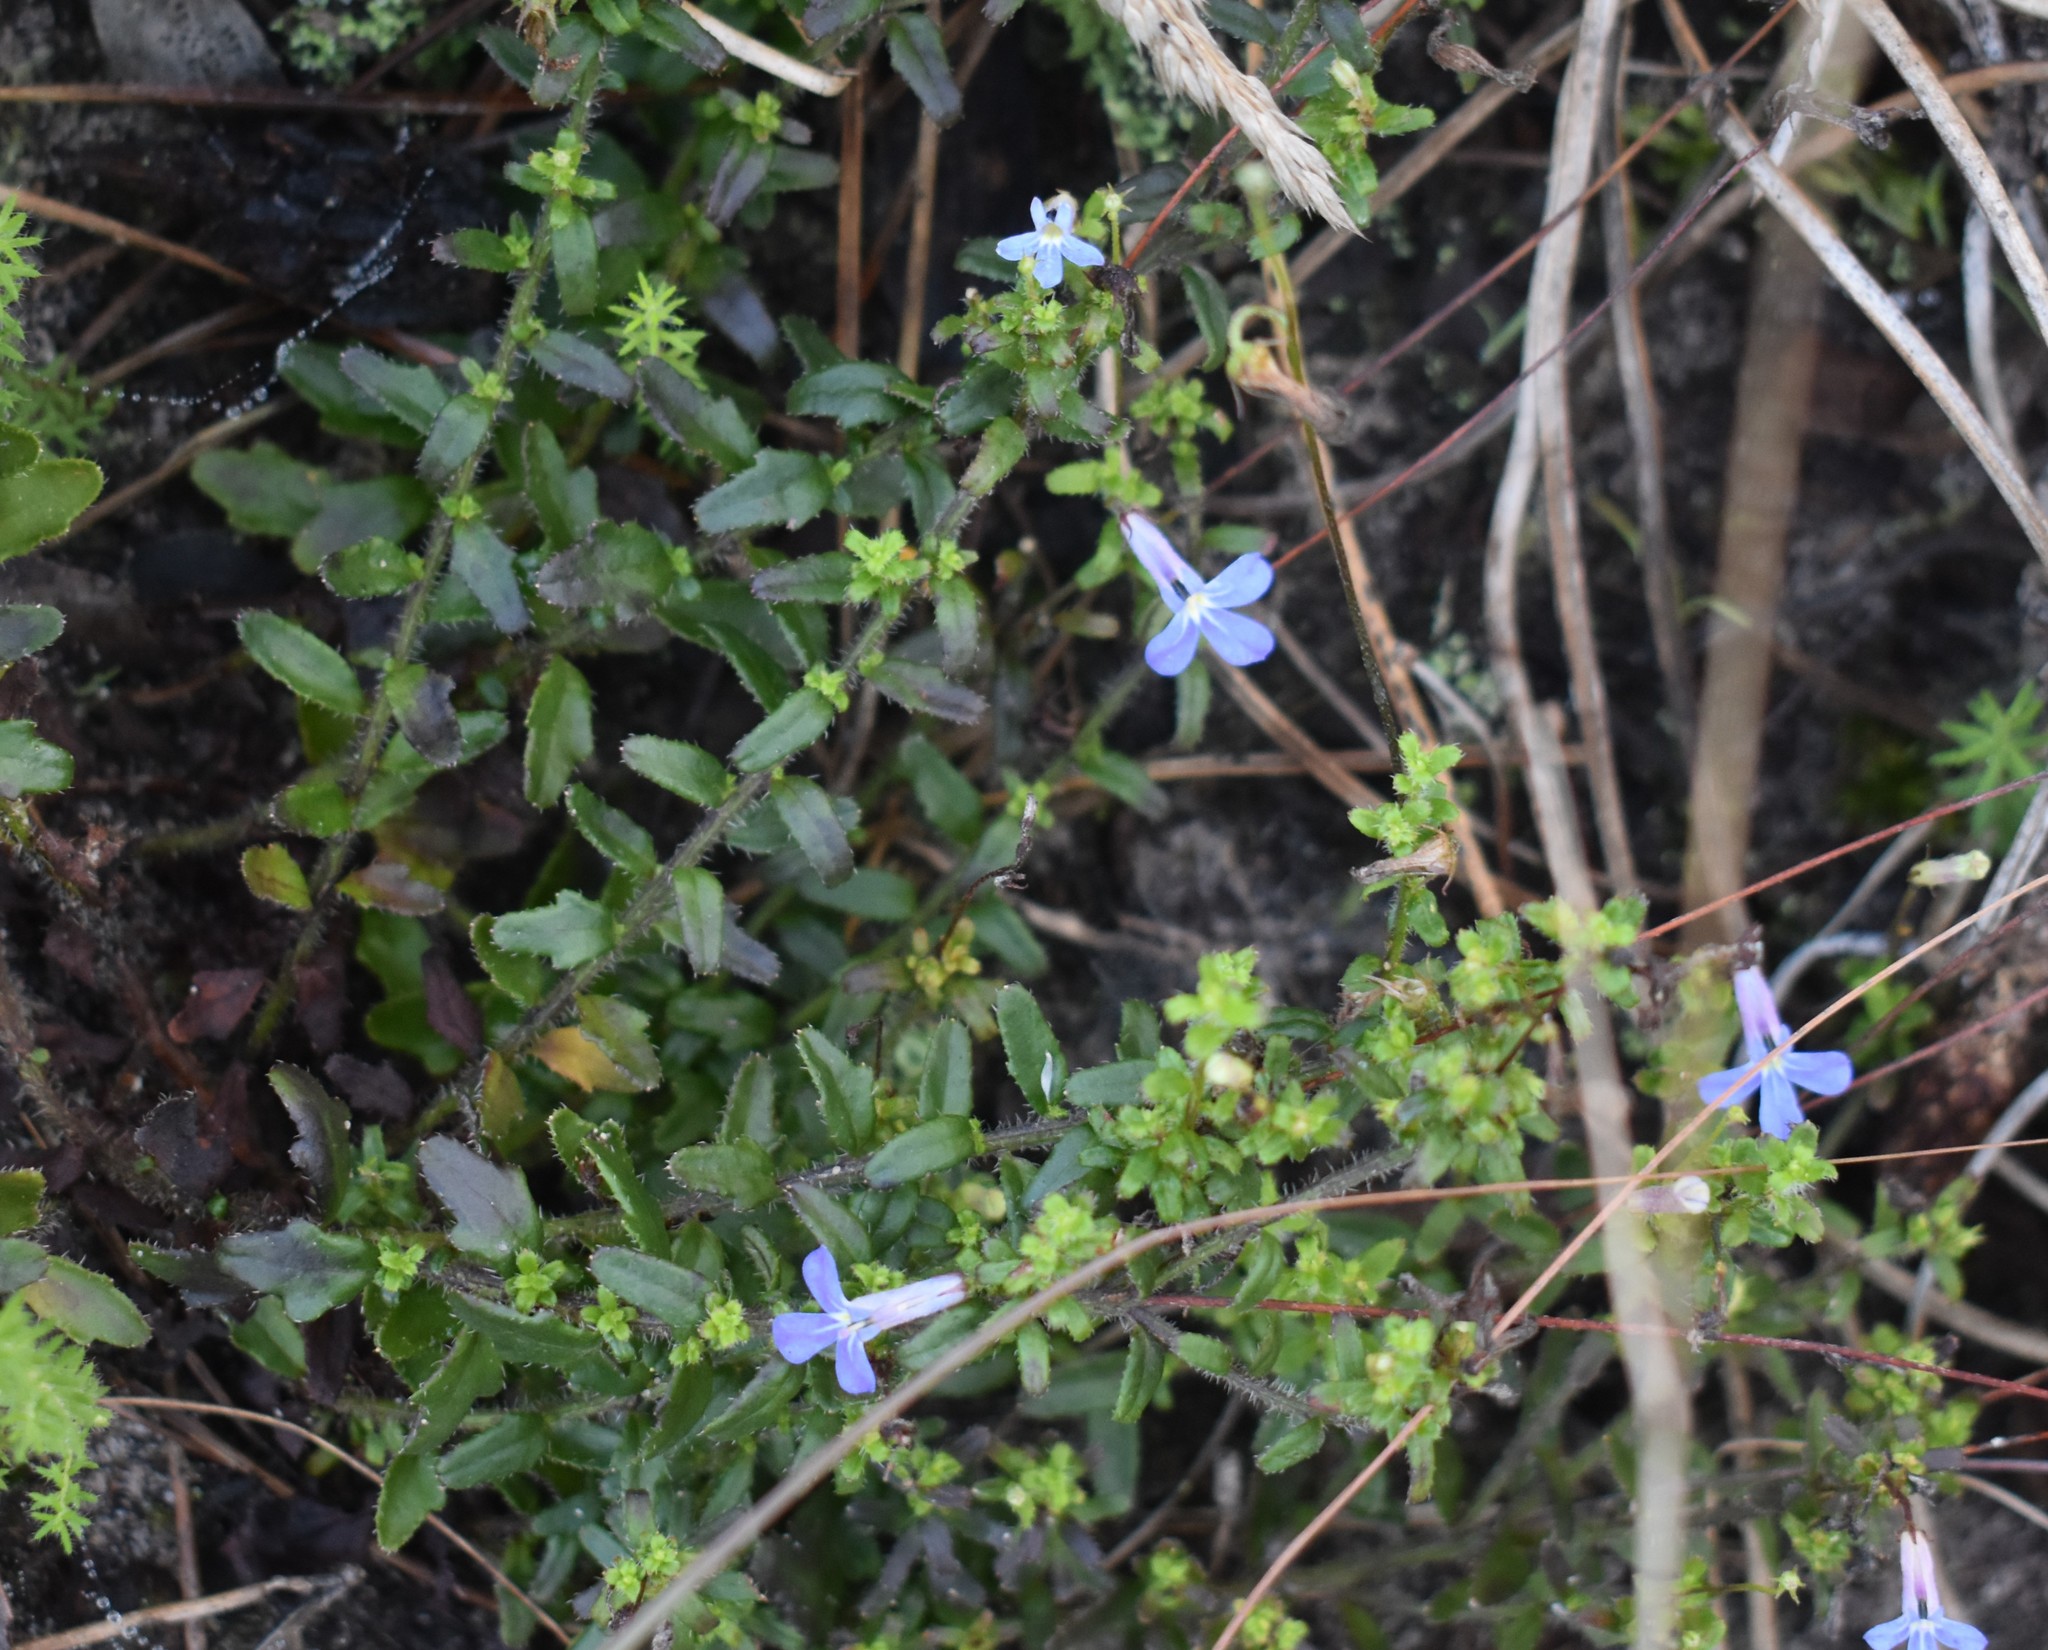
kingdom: Plantae
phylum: Tracheophyta
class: Magnoliopsida
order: Asterales
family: Campanulaceae
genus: Lobelia
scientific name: Lobelia neglecta
